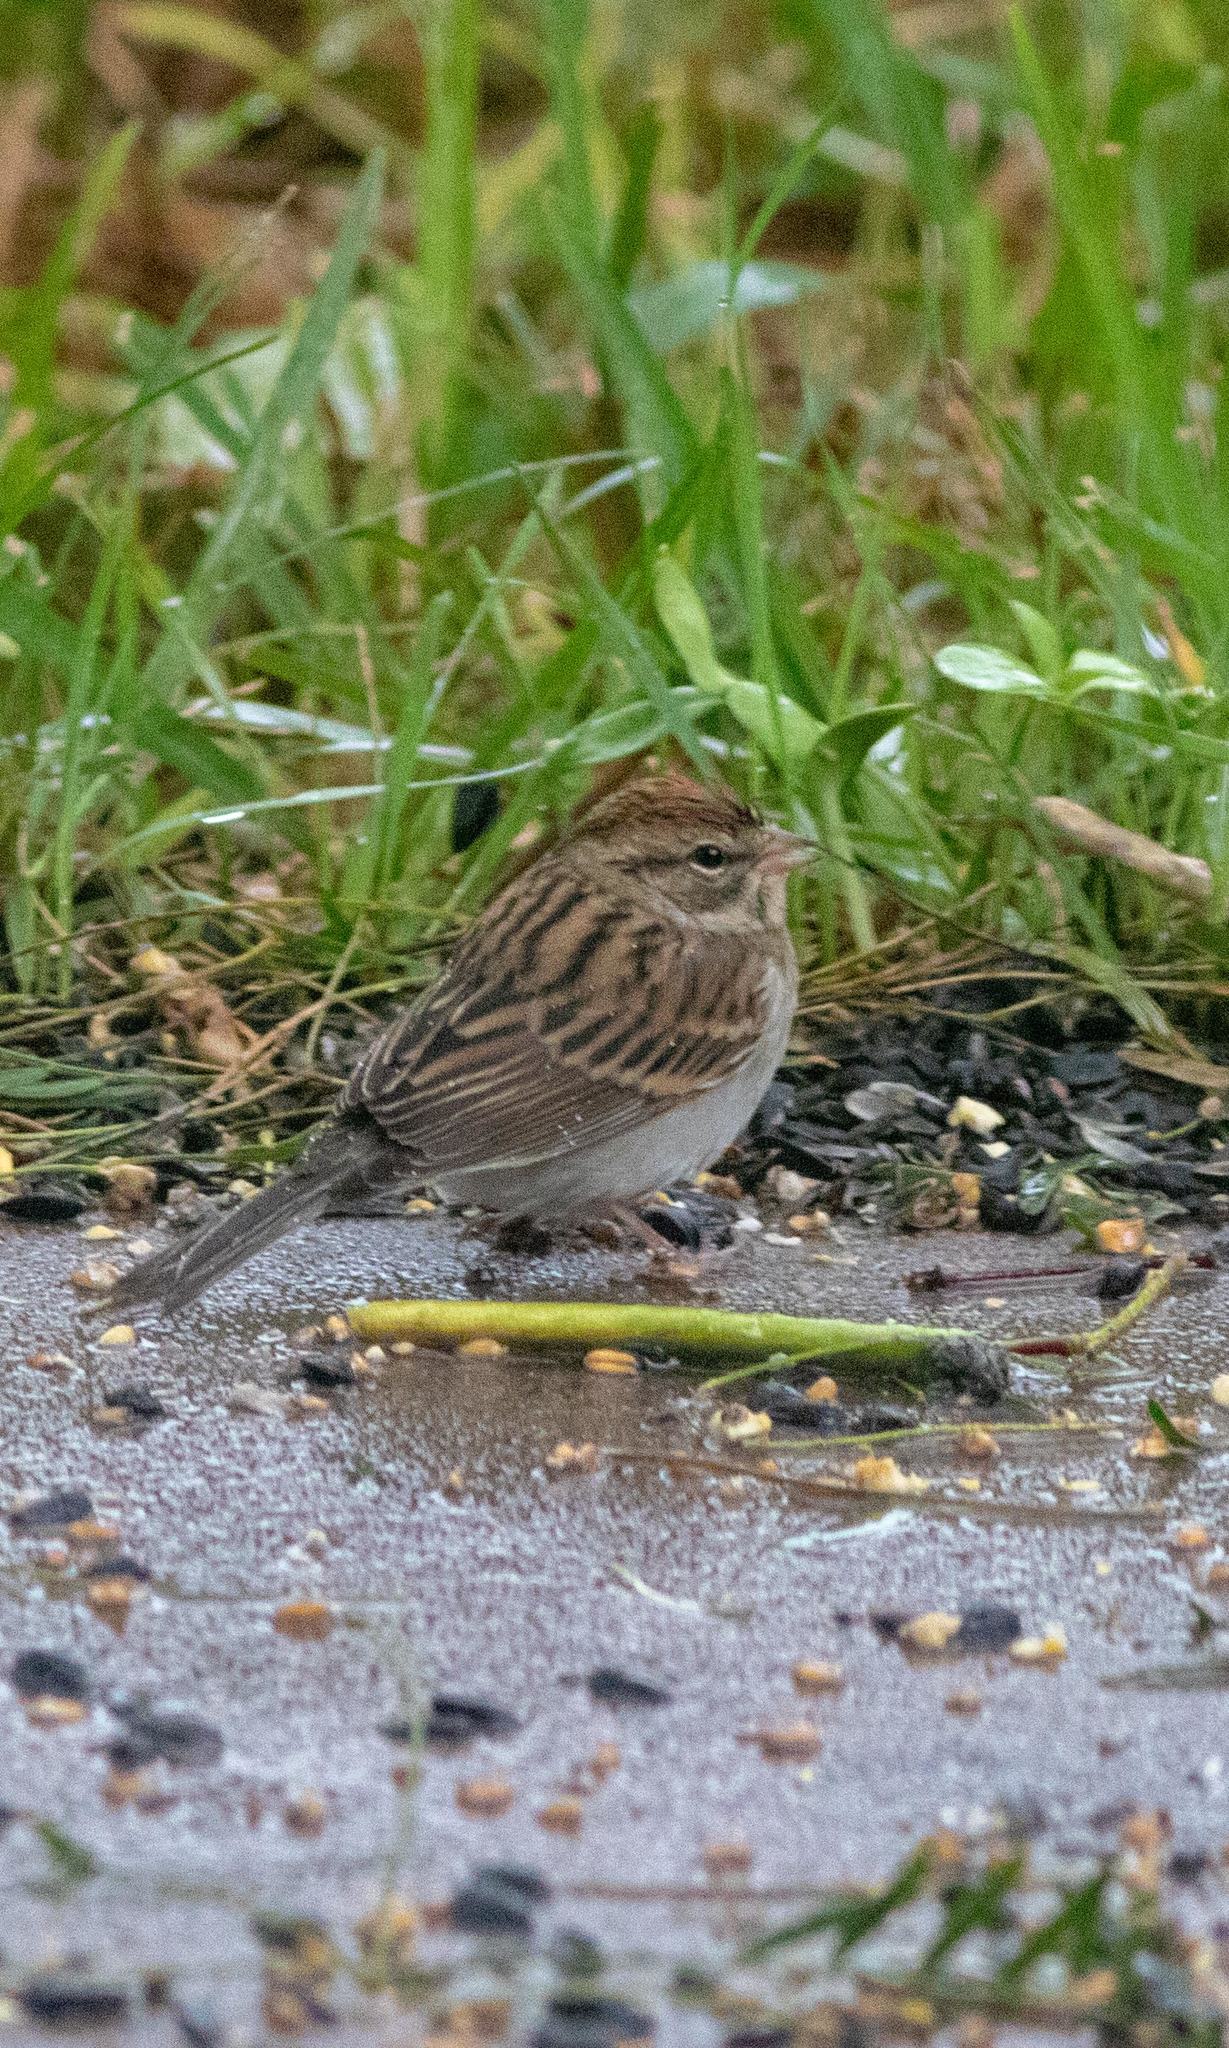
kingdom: Animalia
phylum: Chordata
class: Aves
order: Passeriformes
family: Passerellidae
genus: Spizella
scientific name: Spizella passerina
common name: Chipping sparrow
